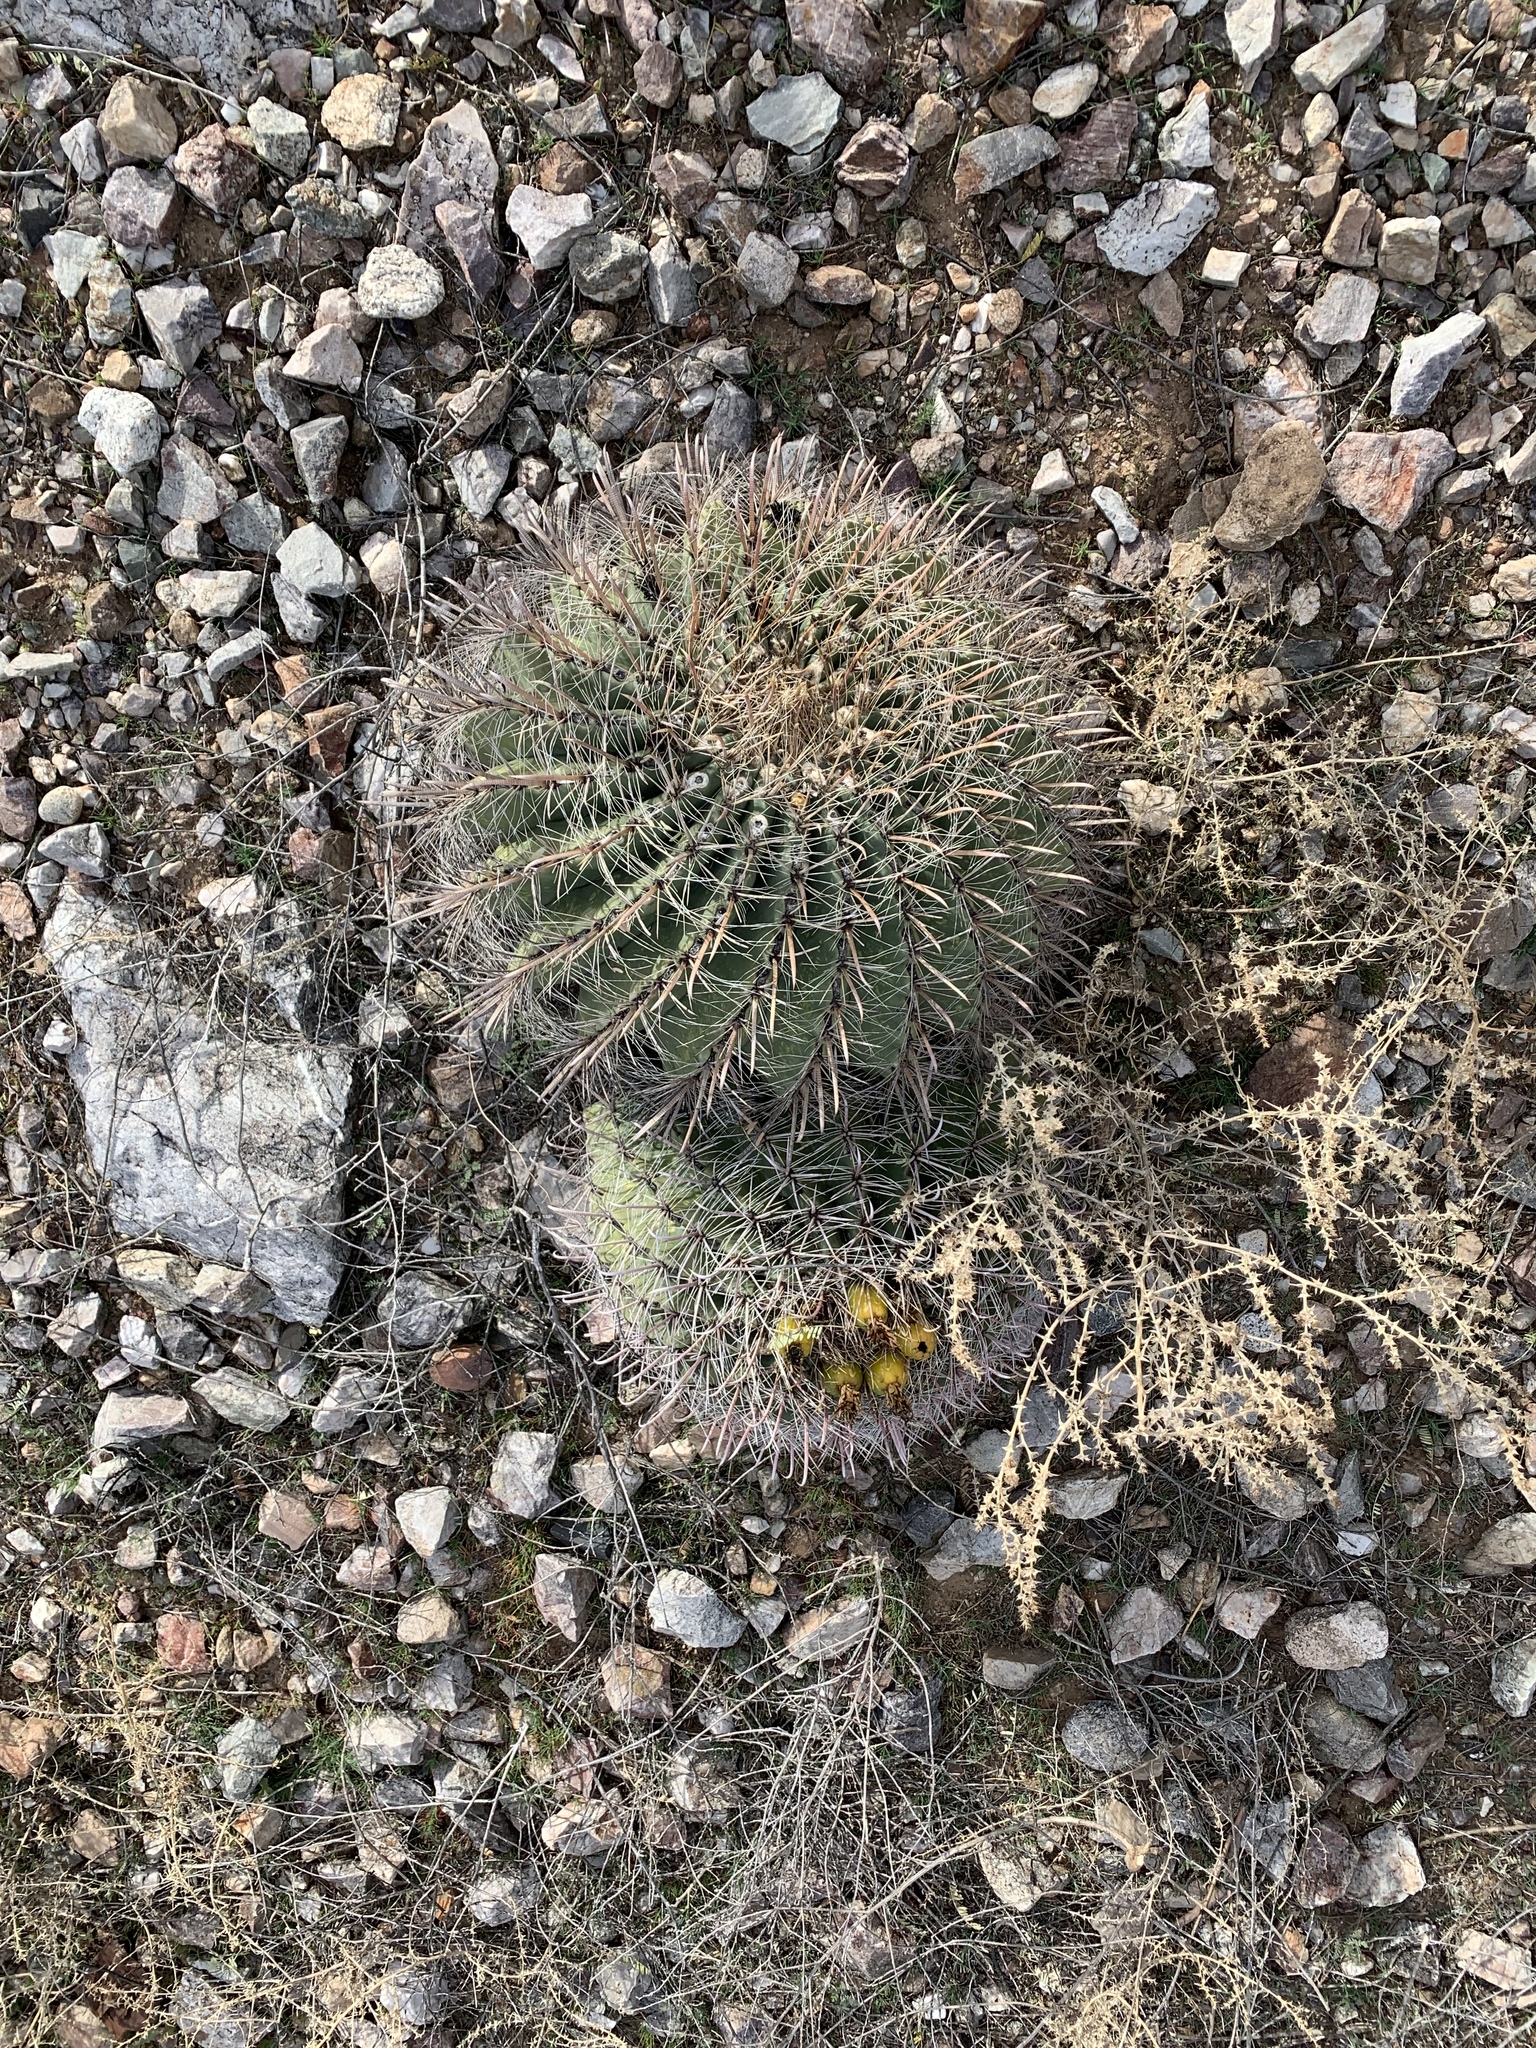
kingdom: Plantae
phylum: Tracheophyta
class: Magnoliopsida
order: Caryophyllales
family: Cactaceae
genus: Ferocactus
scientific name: Ferocactus wislizeni
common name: Candy barrel cactus
